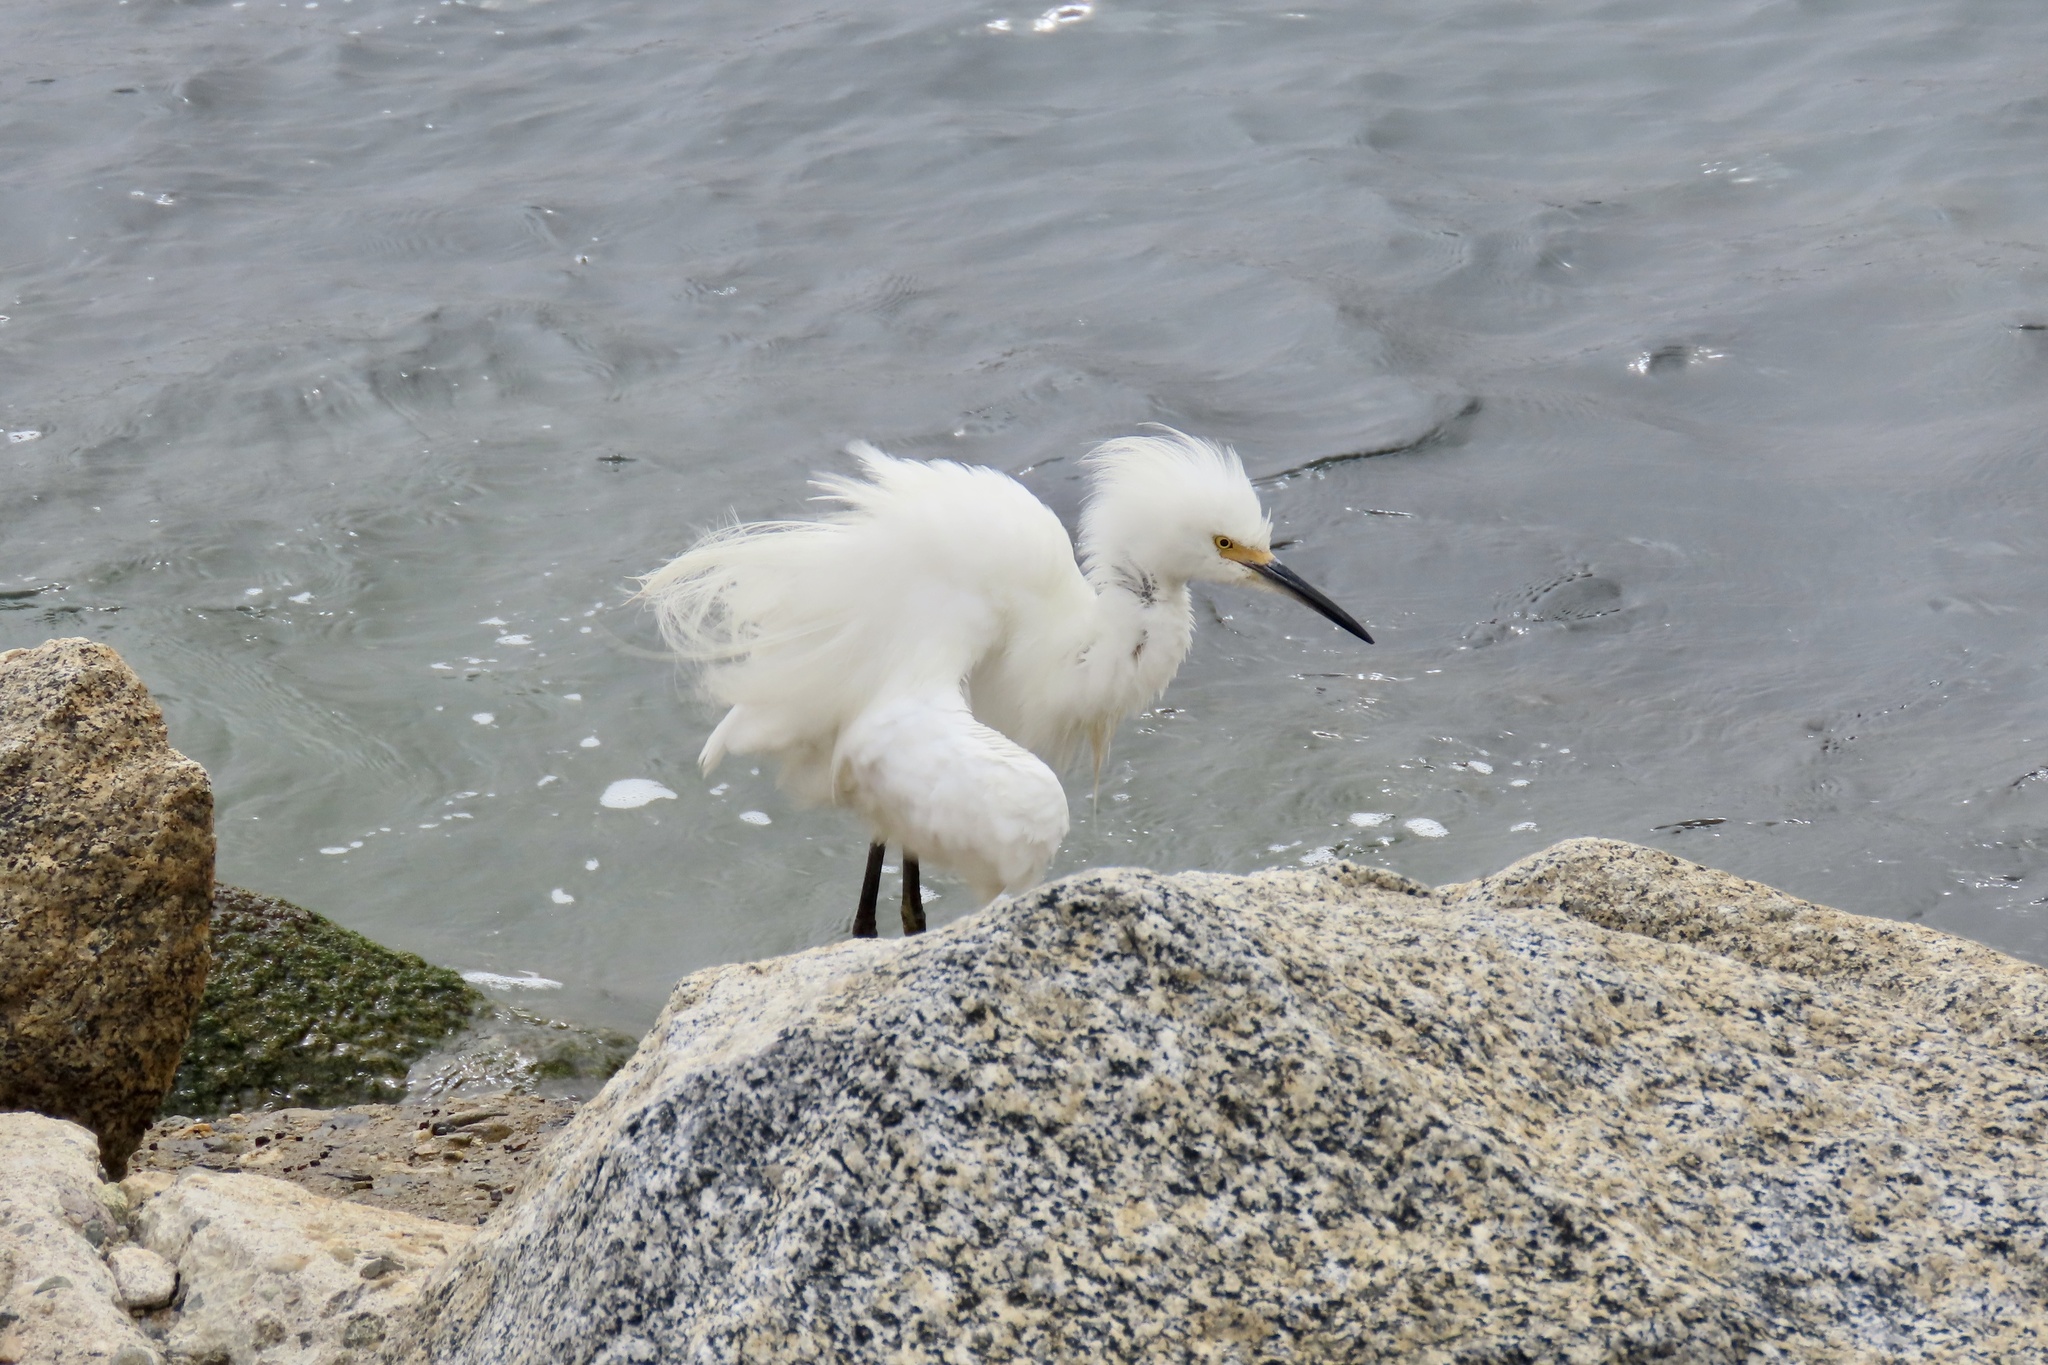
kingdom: Animalia
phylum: Chordata
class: Aves
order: Pelecaniformes
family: Ardeidae
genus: Egretta
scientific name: Egretta thula
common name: Snowy egret
